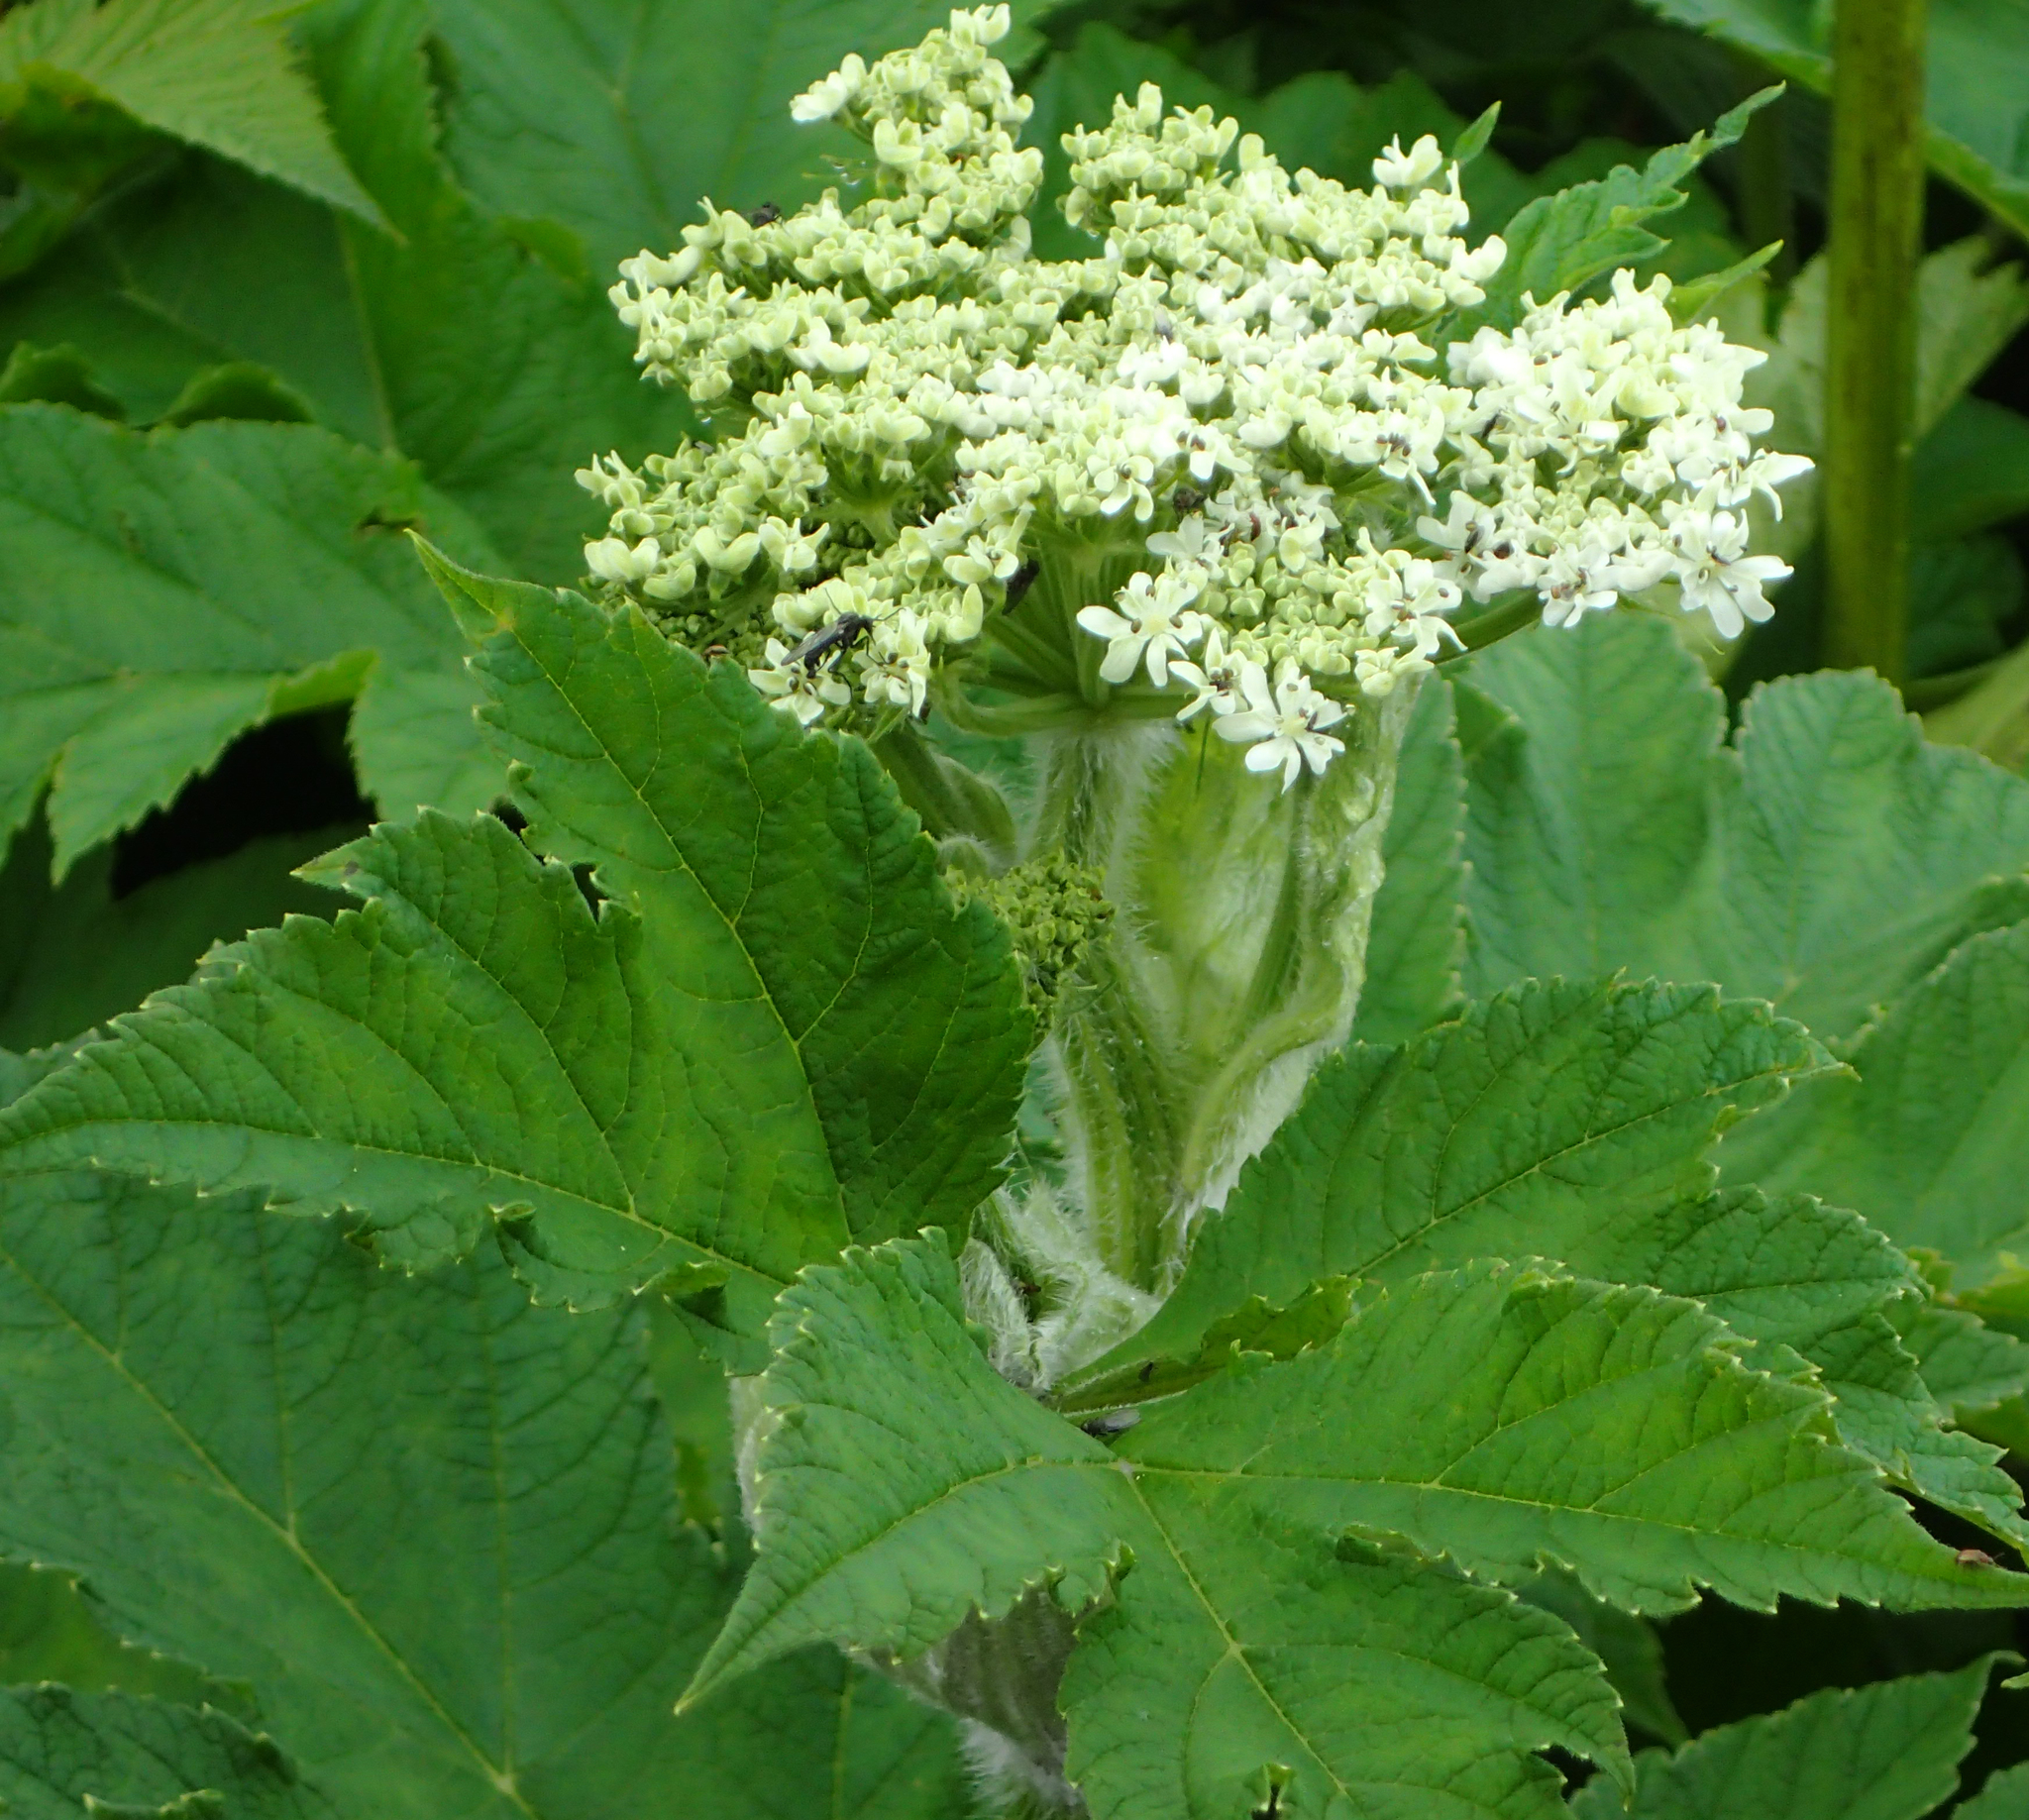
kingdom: Plantae
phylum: Tracheophyta
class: Magnoliopsida
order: Apiales
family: Apiaceae
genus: Heracleum
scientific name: Heracleum maximum
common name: American cow parsnip
